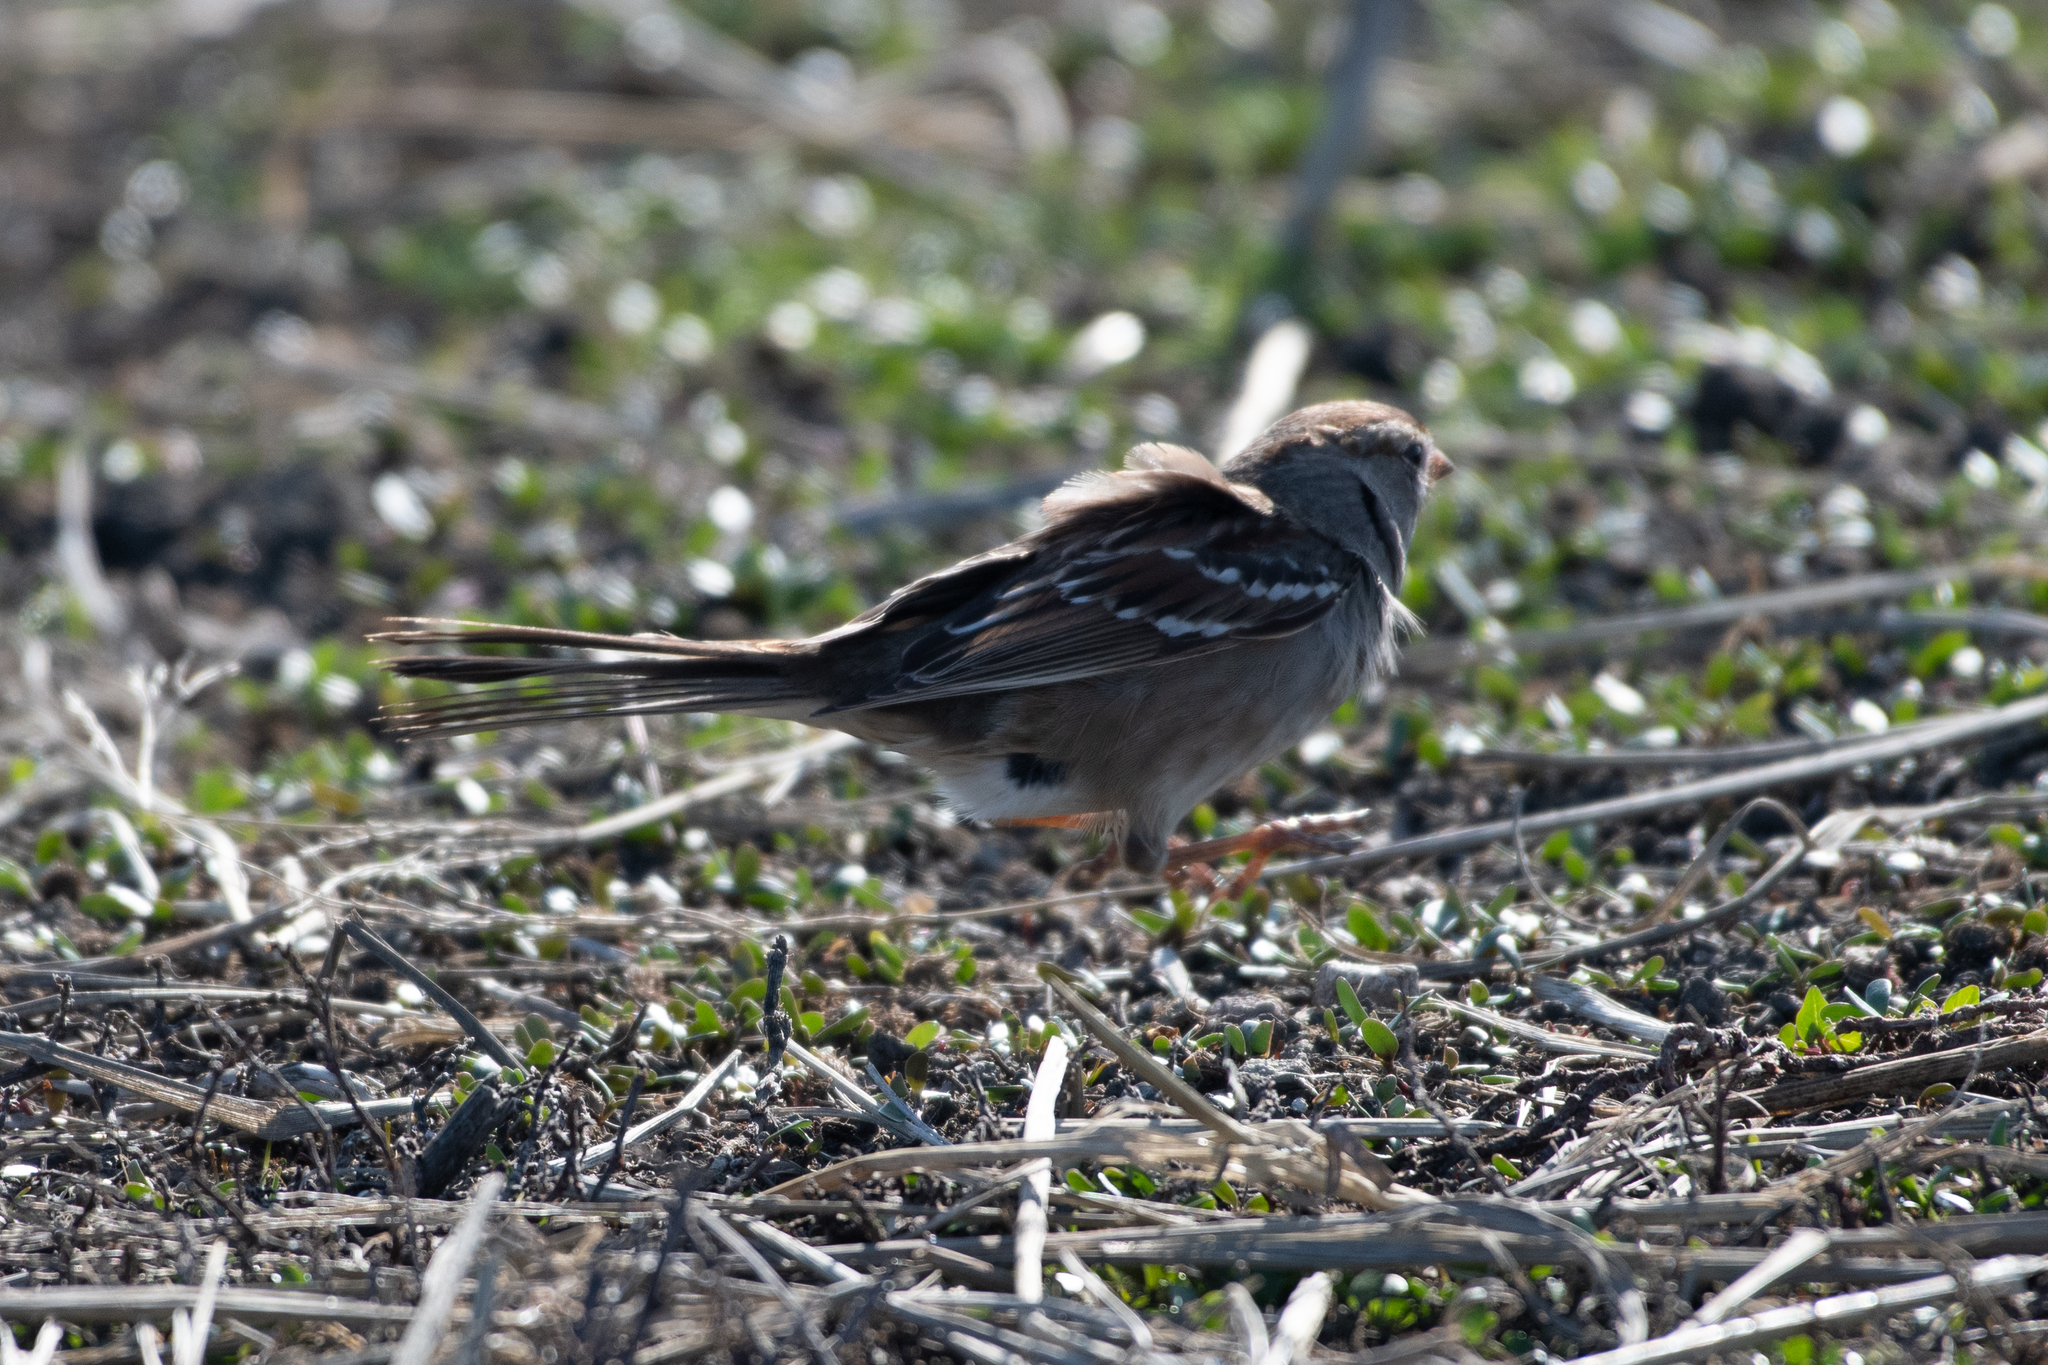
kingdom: Animalia
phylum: Chordata
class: Aves
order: Passeriformes
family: Passerellidae
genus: Zonotrichia
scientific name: Zonotrichia leucophrys
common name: White-crowned sparrow
